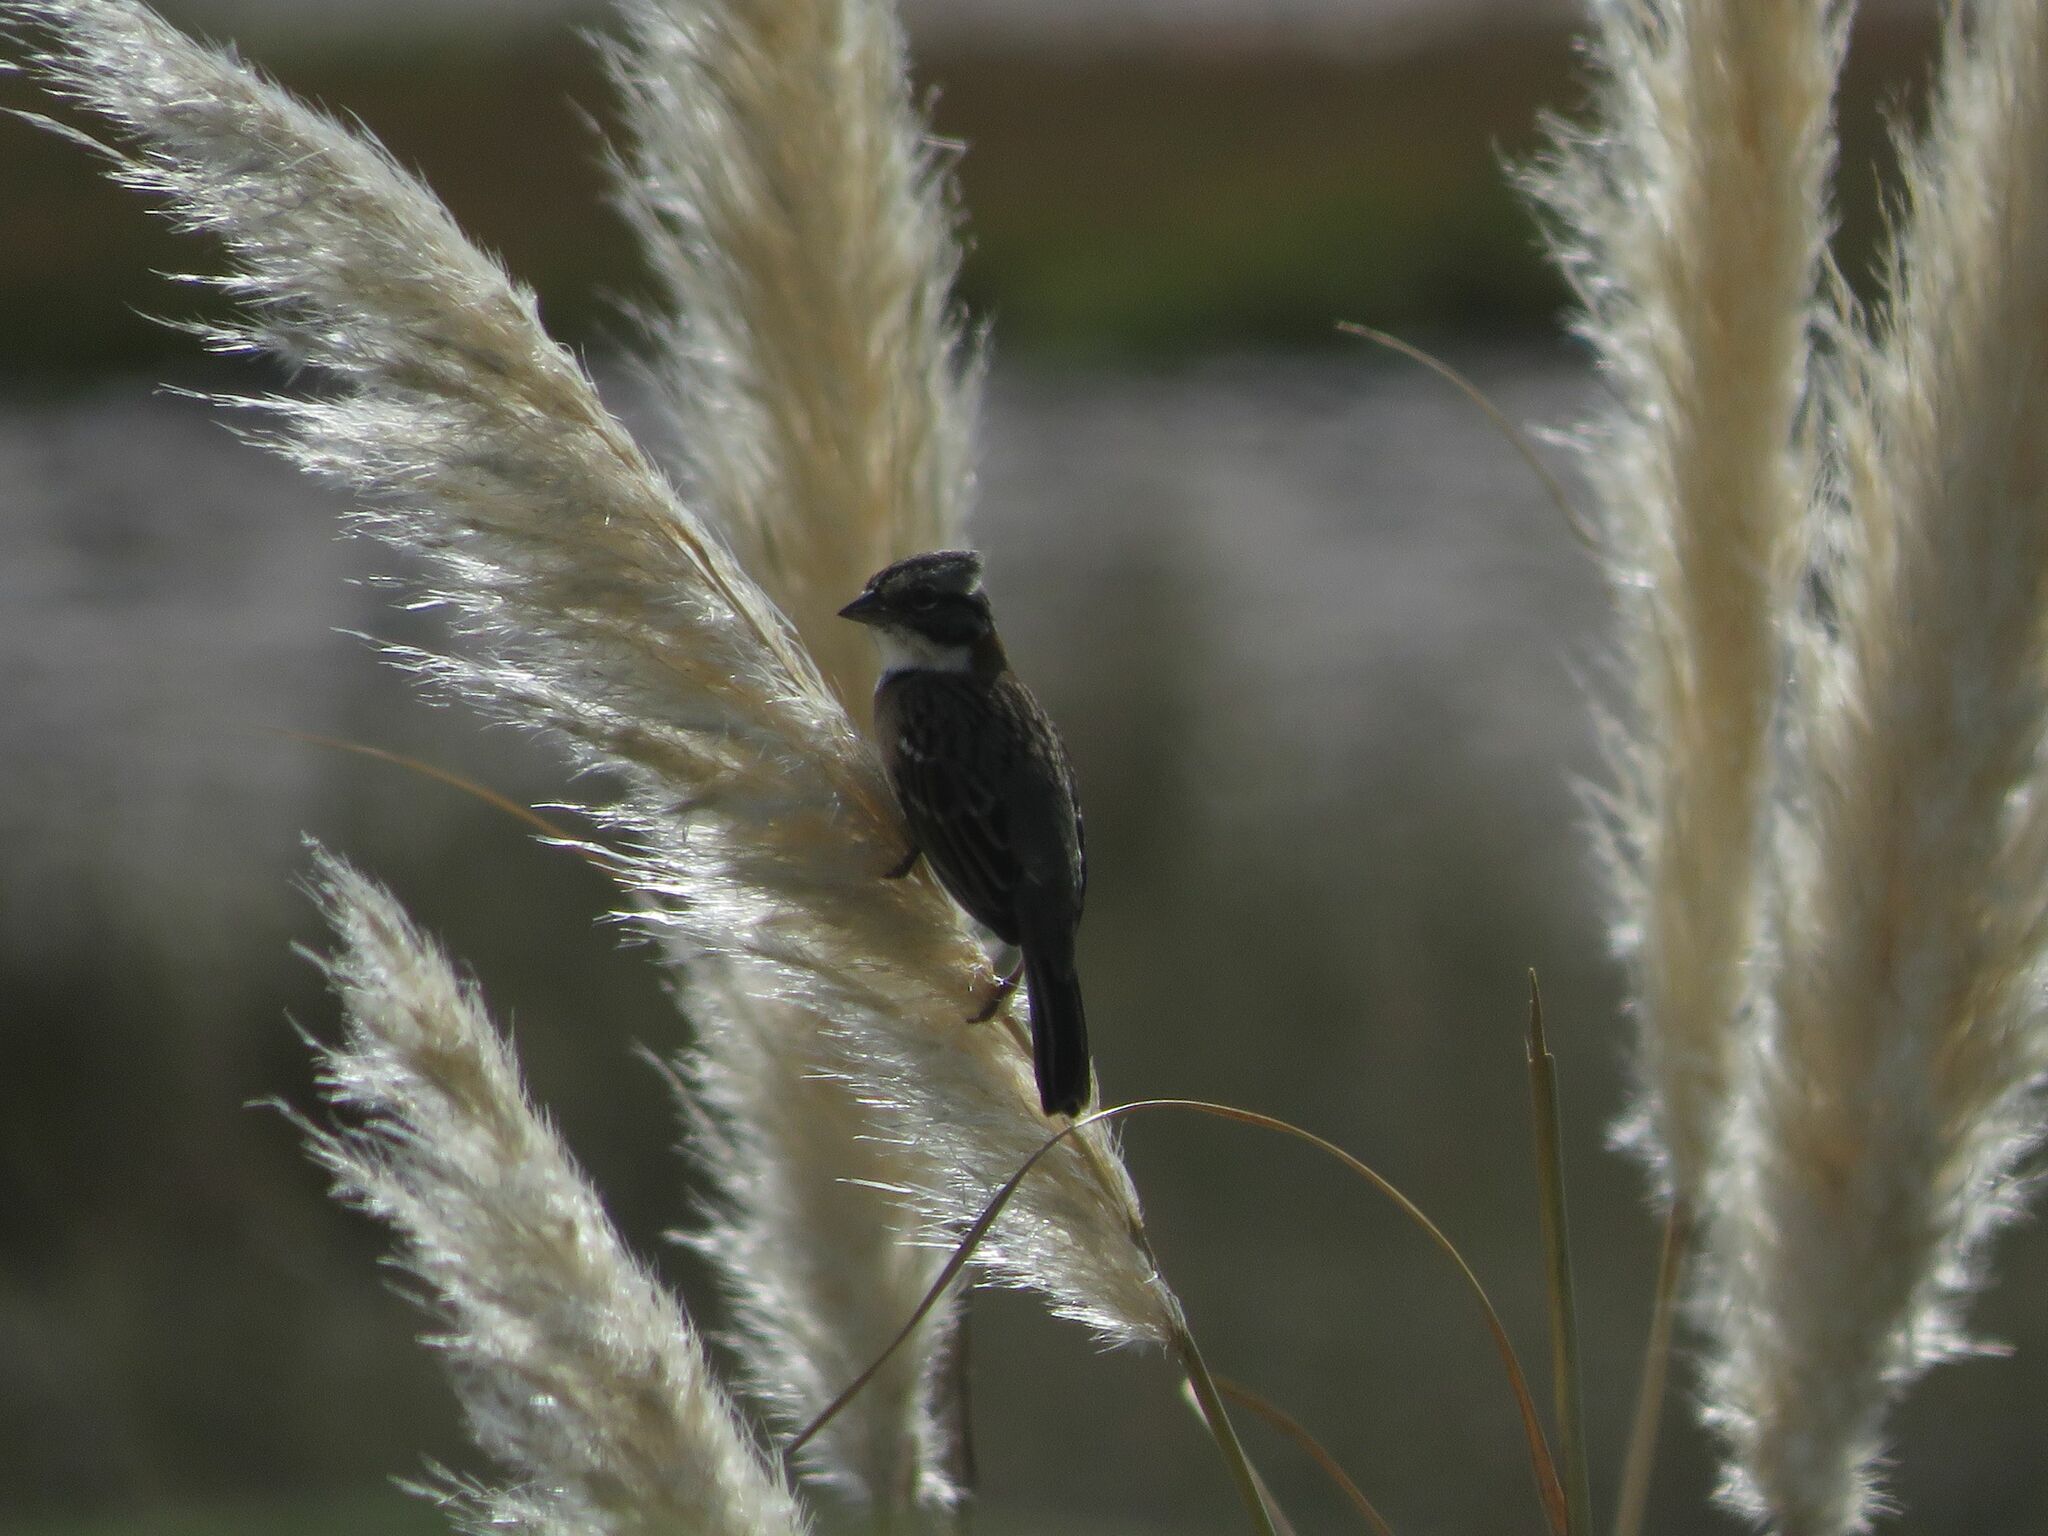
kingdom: Animalia
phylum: Chordata
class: Aves
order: Passeriformes
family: Passerellidae
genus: Zonotrichia
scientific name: Zonotrichia capensis
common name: Rufous-collared sparrow
